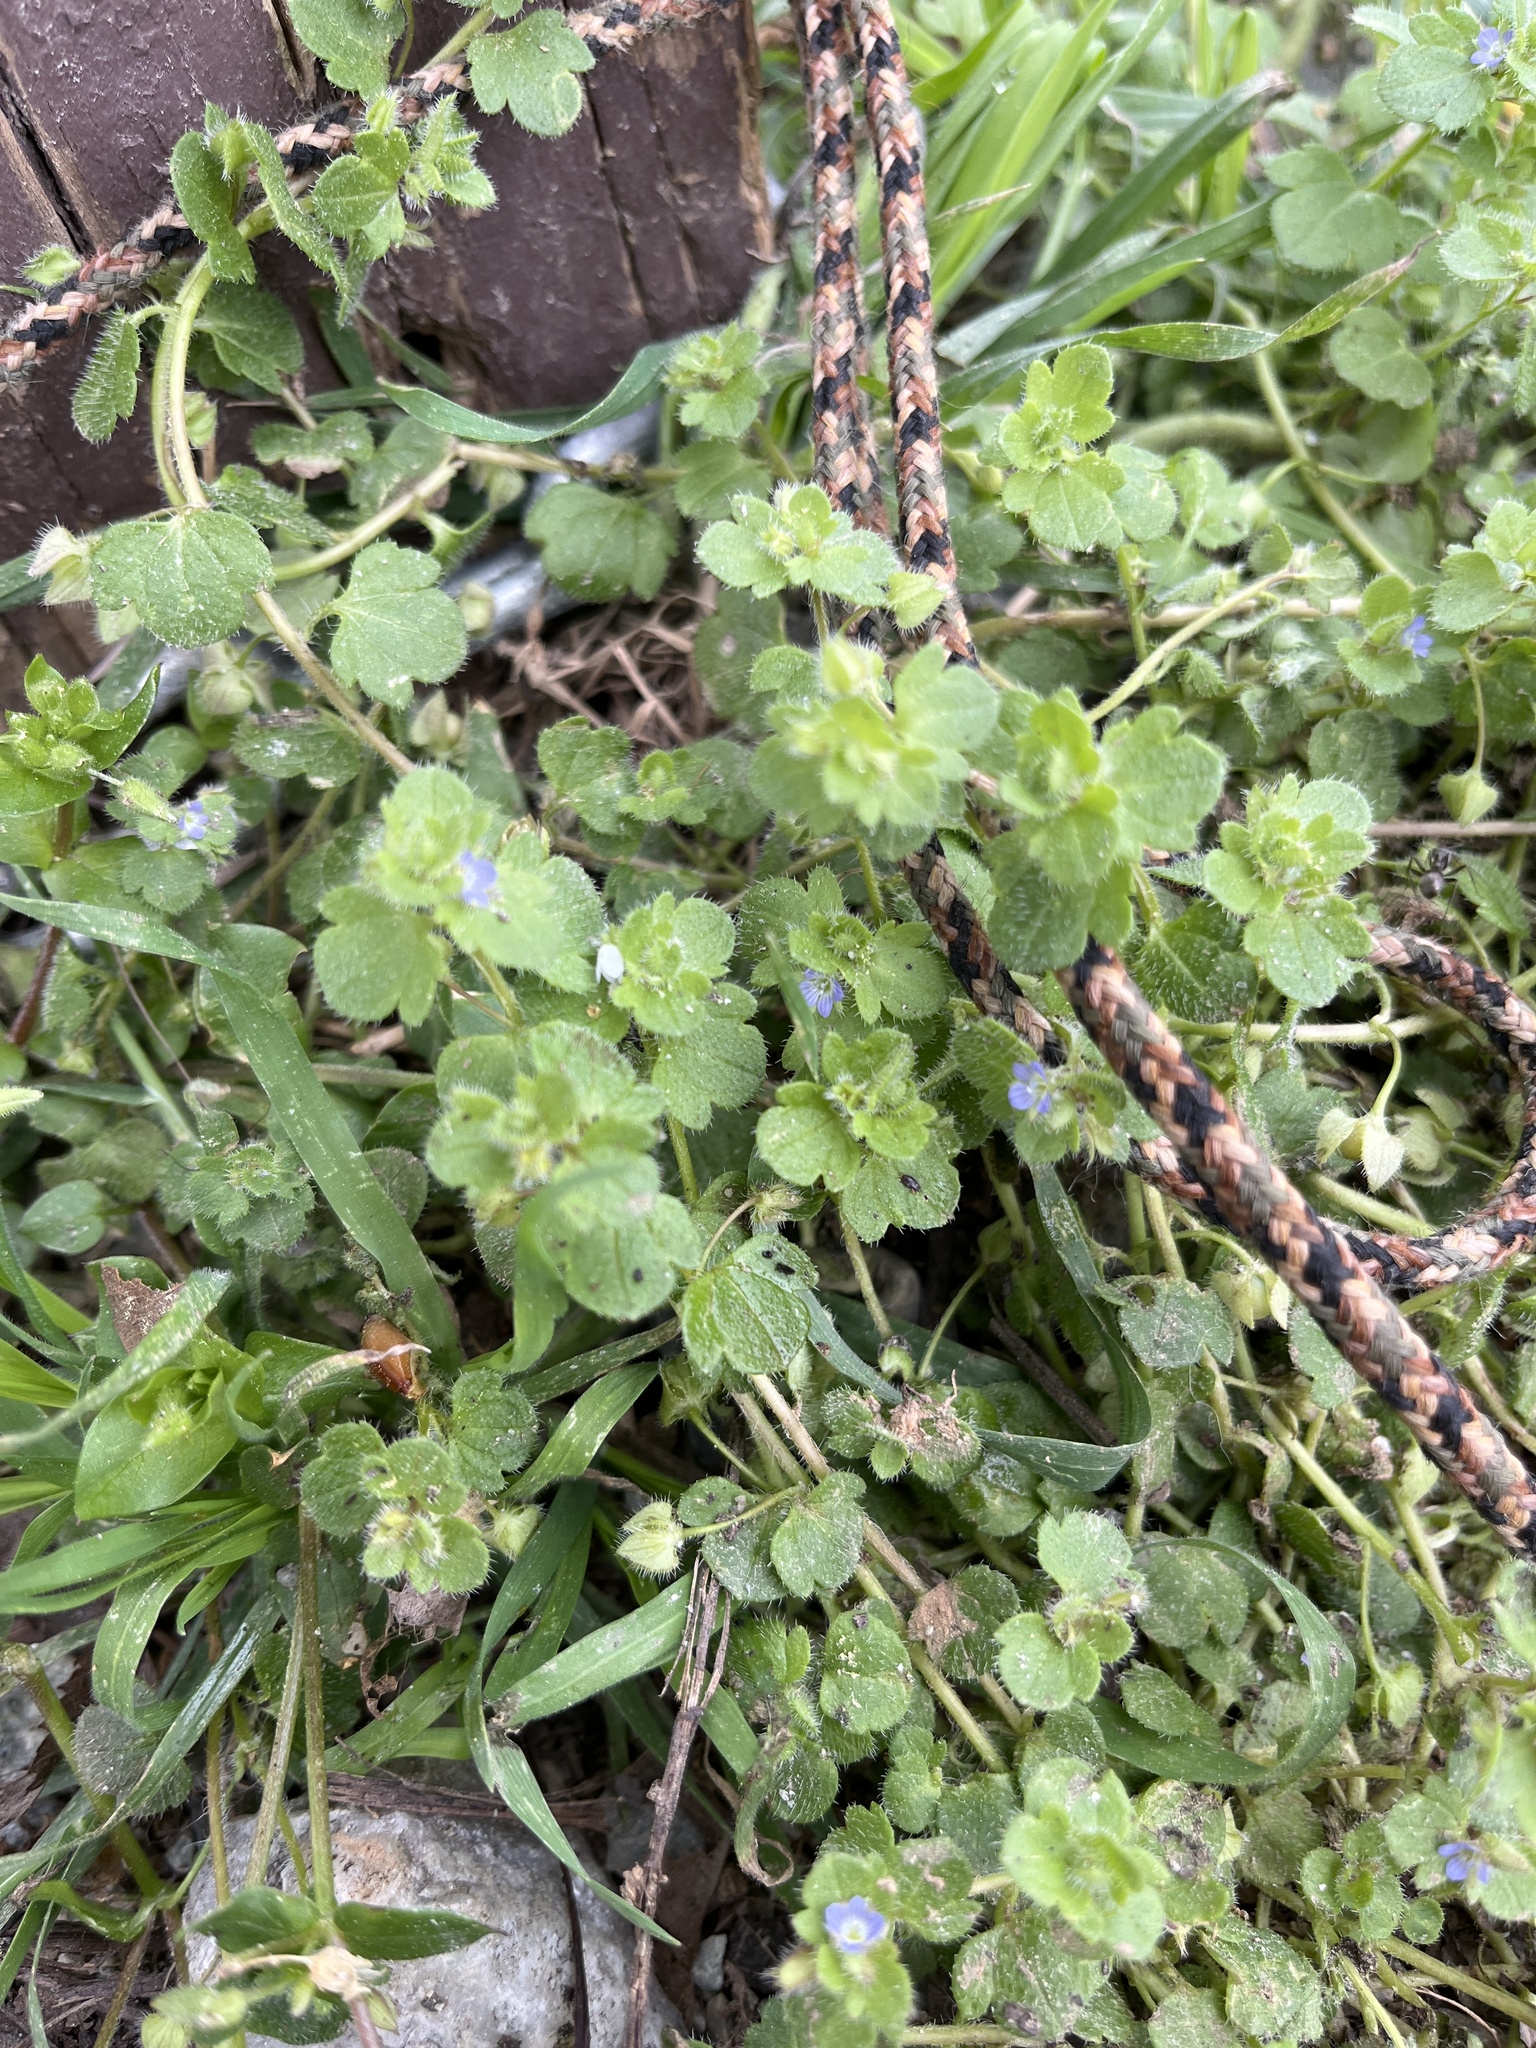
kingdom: Plantae
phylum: Tracheophyta
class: Magnoliopsida
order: Lamiales
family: Plantaginaceae
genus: Veronica
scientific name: Veronica hederifolia
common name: Ivy-leaved speedwell
